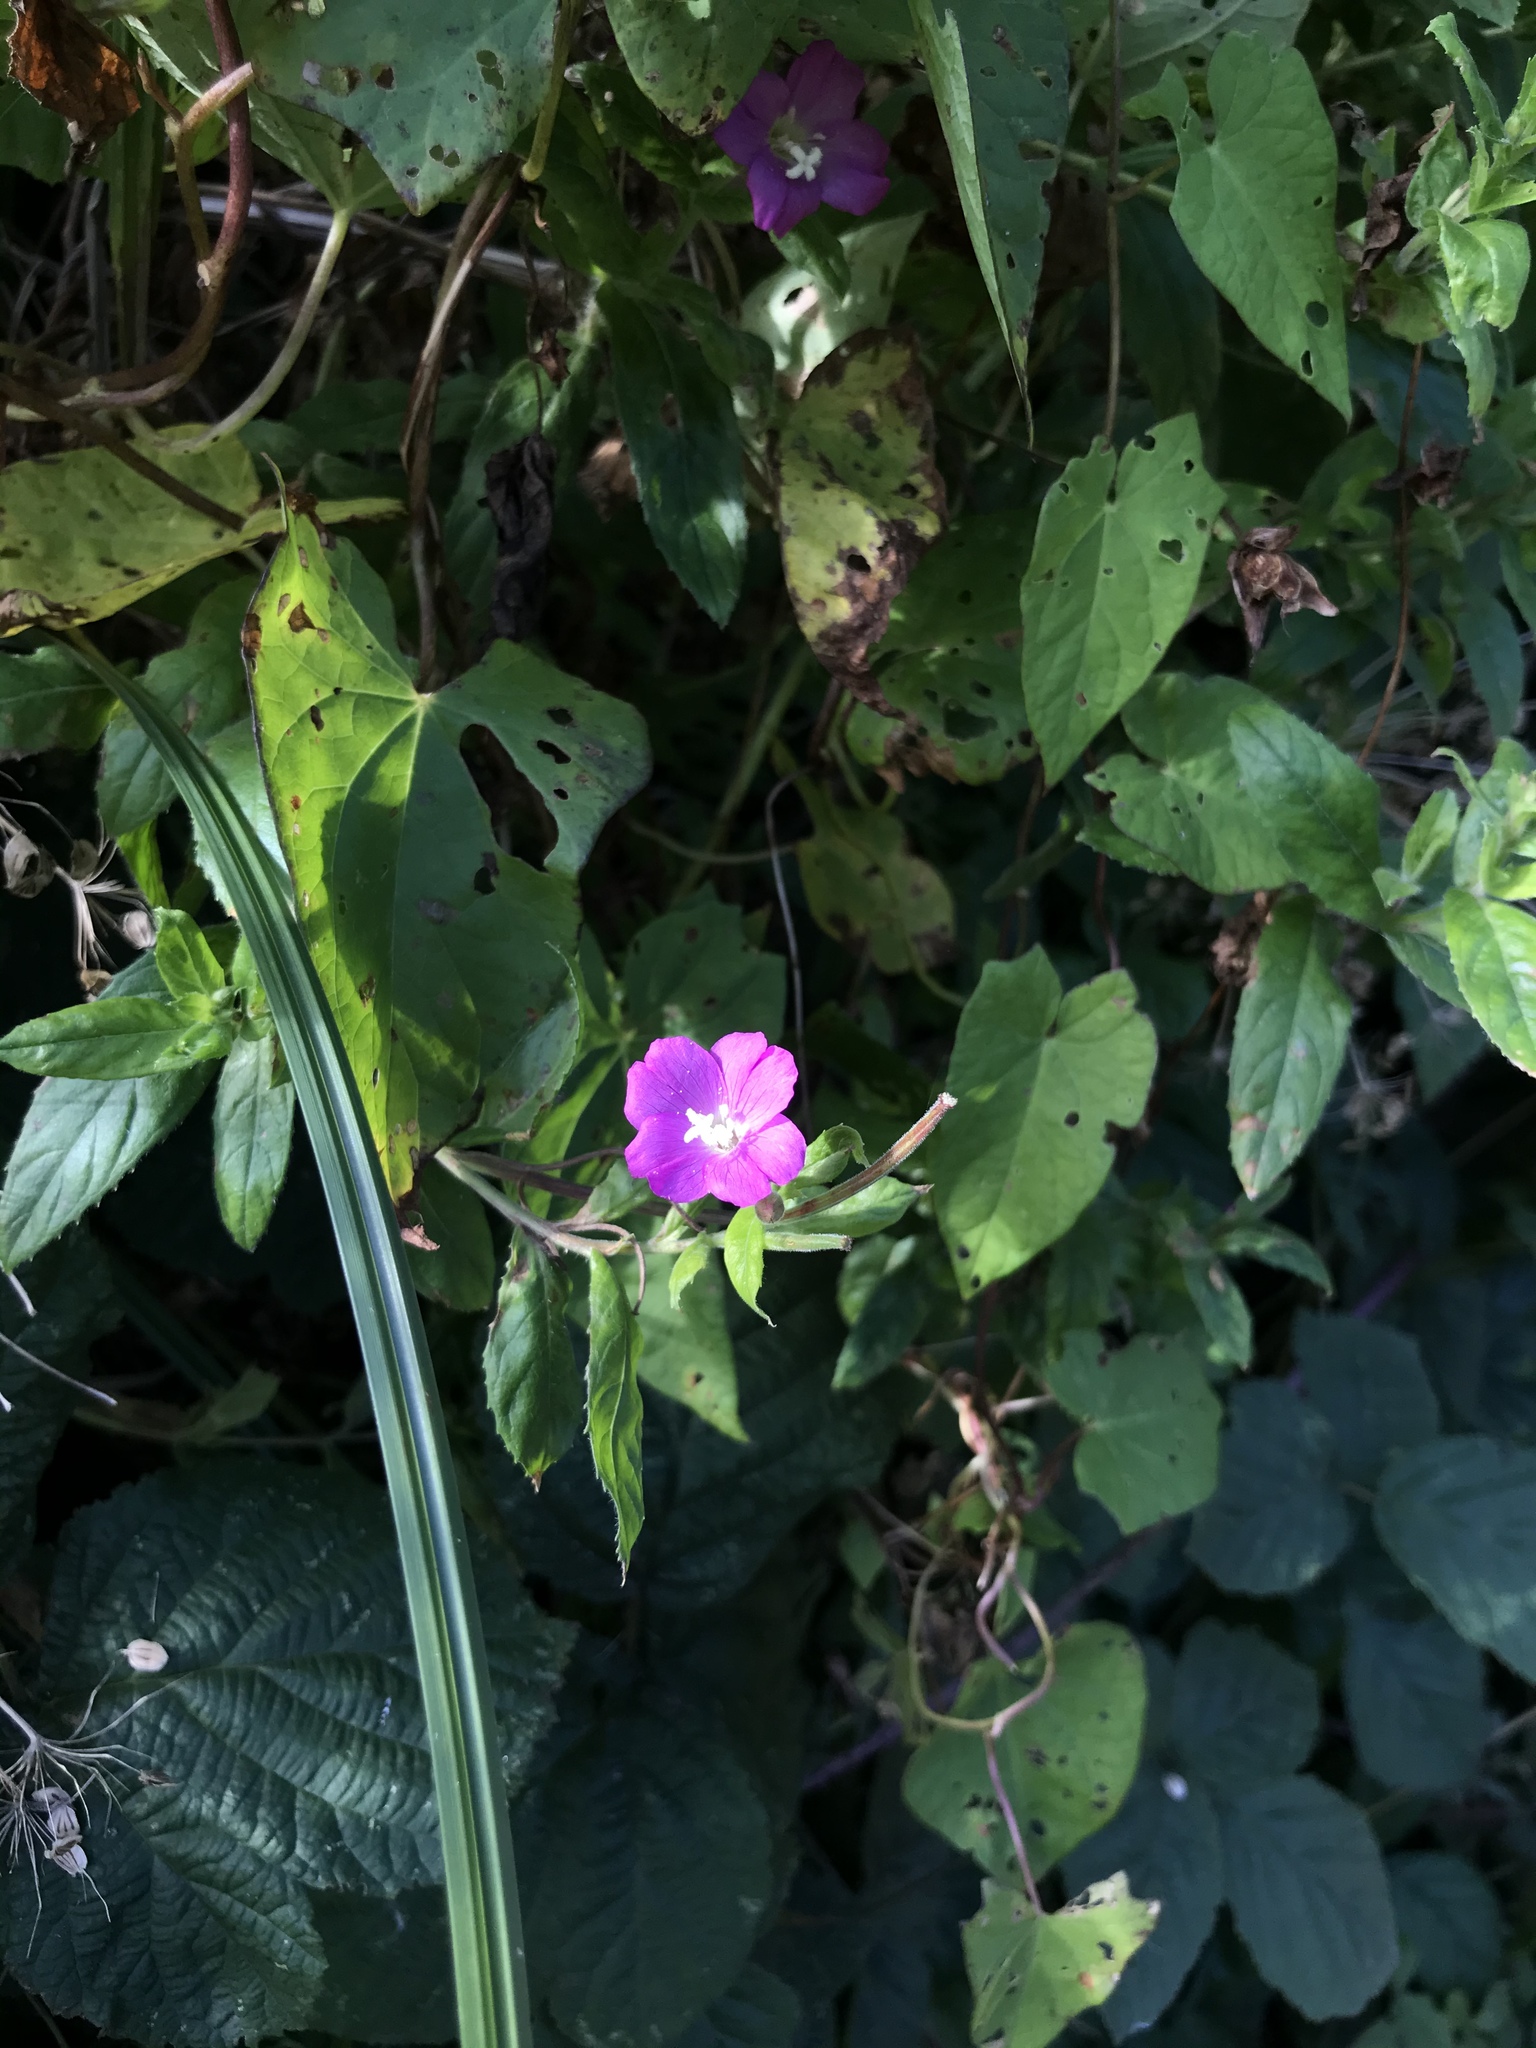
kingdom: Plantae
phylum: Tracheophyta
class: Magnoliopsida
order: Myrtales
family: Onagraceae
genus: Epilobium
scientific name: Epilobium hirsutum
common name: Great willowherb
